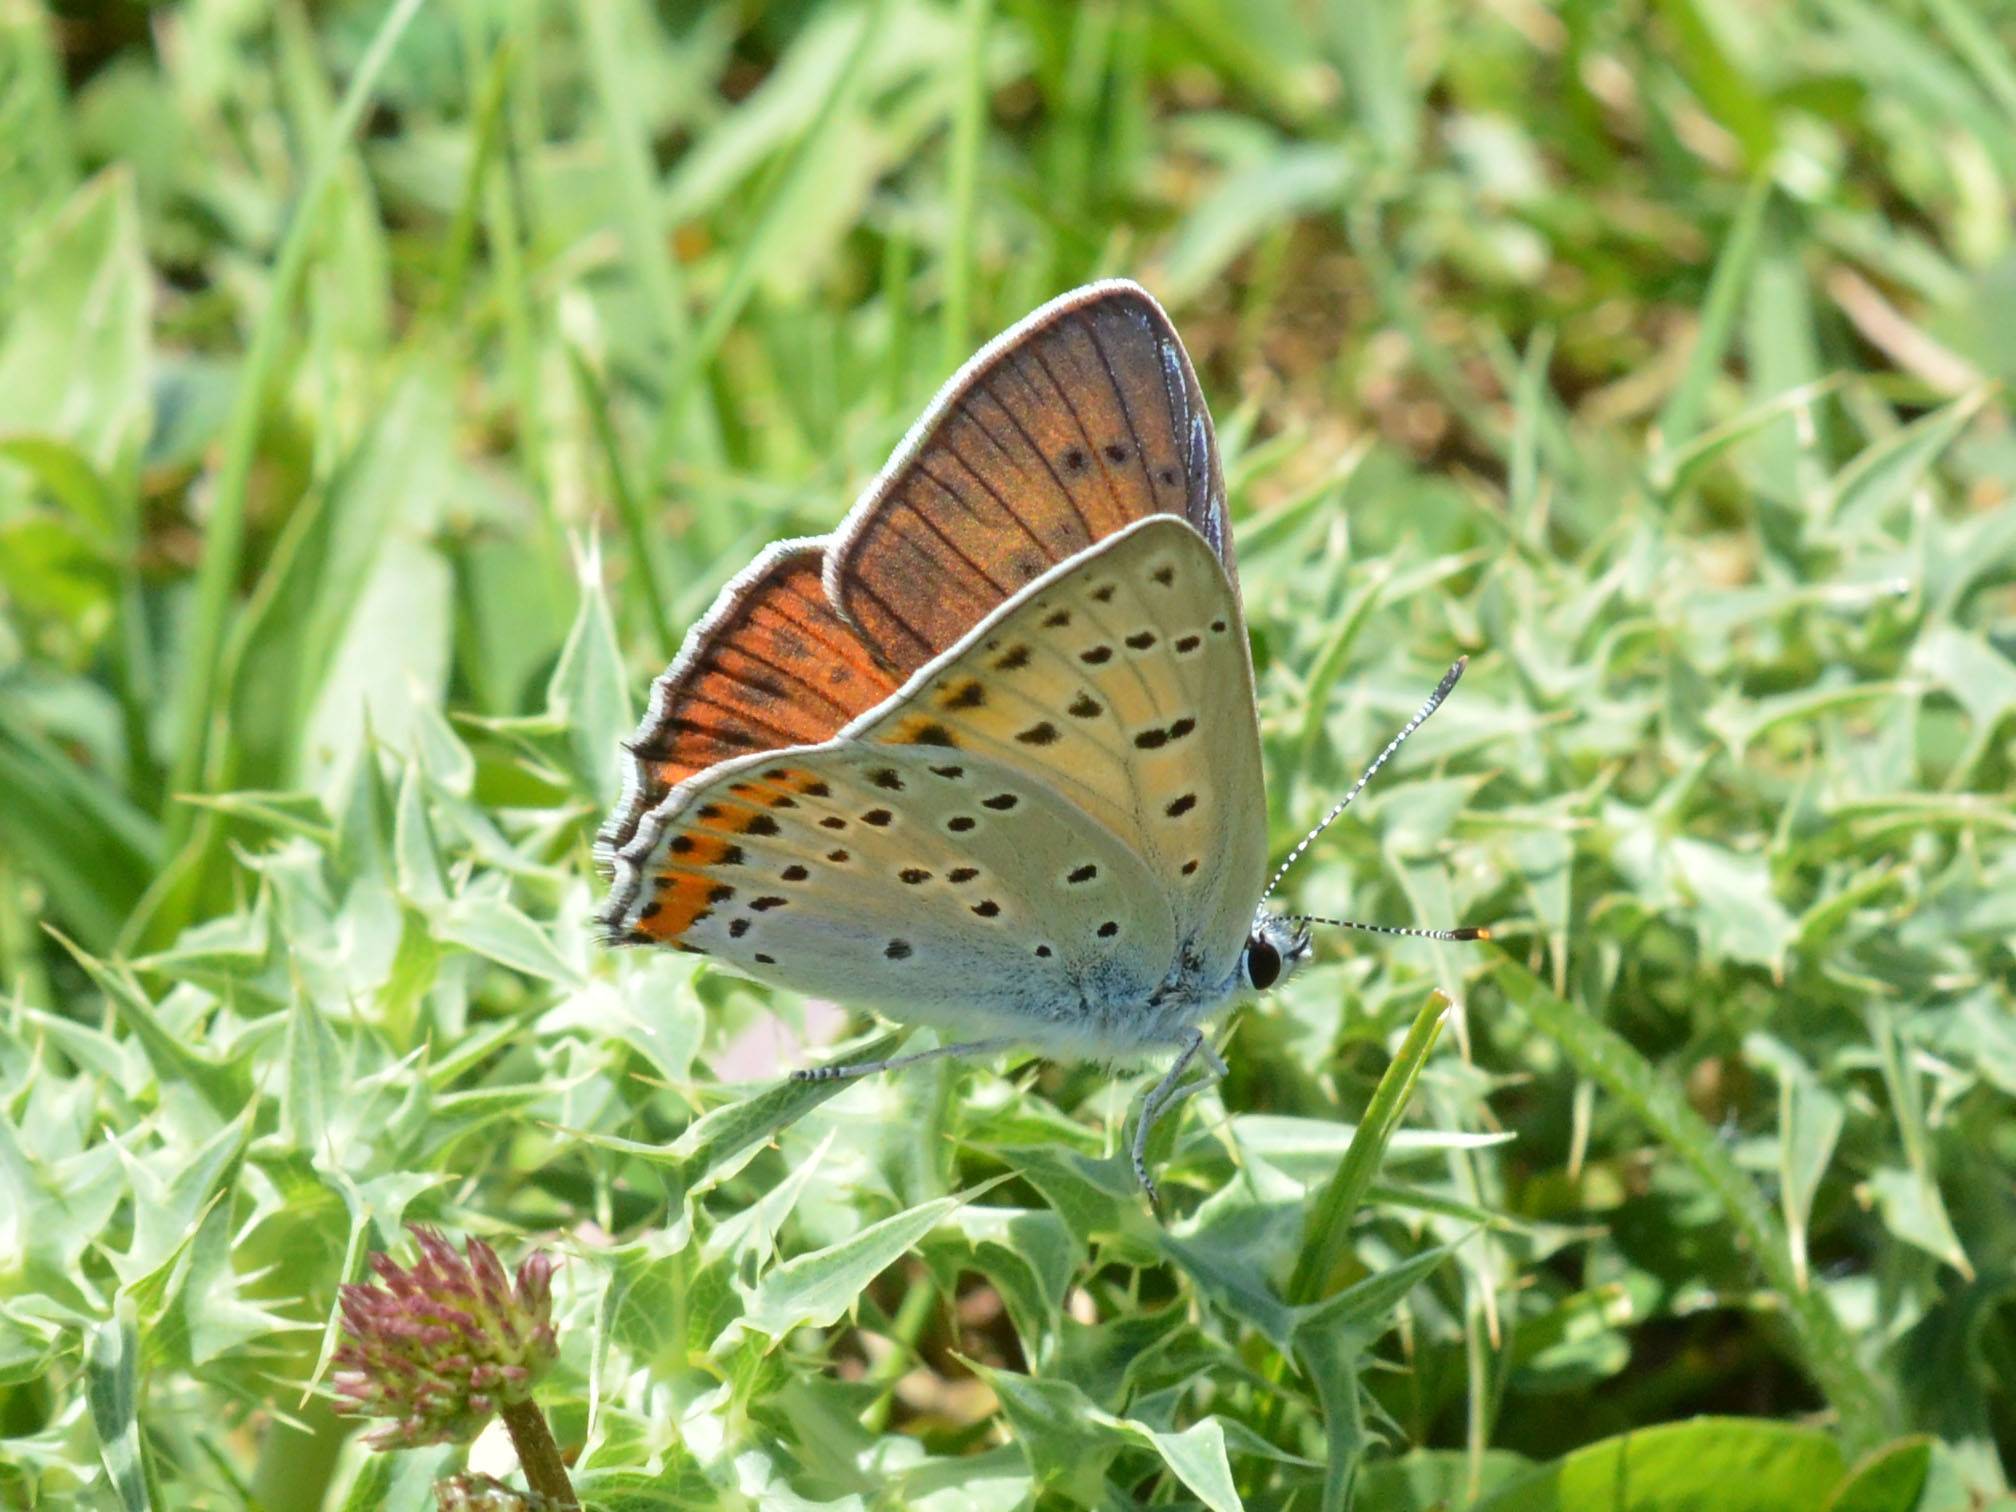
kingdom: Animalia
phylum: Arthropoda
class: Insecta
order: Lepidoptera
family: Lycaenidae
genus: Lycaena
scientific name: Lycaena alciphron
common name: Purple-shot copper
